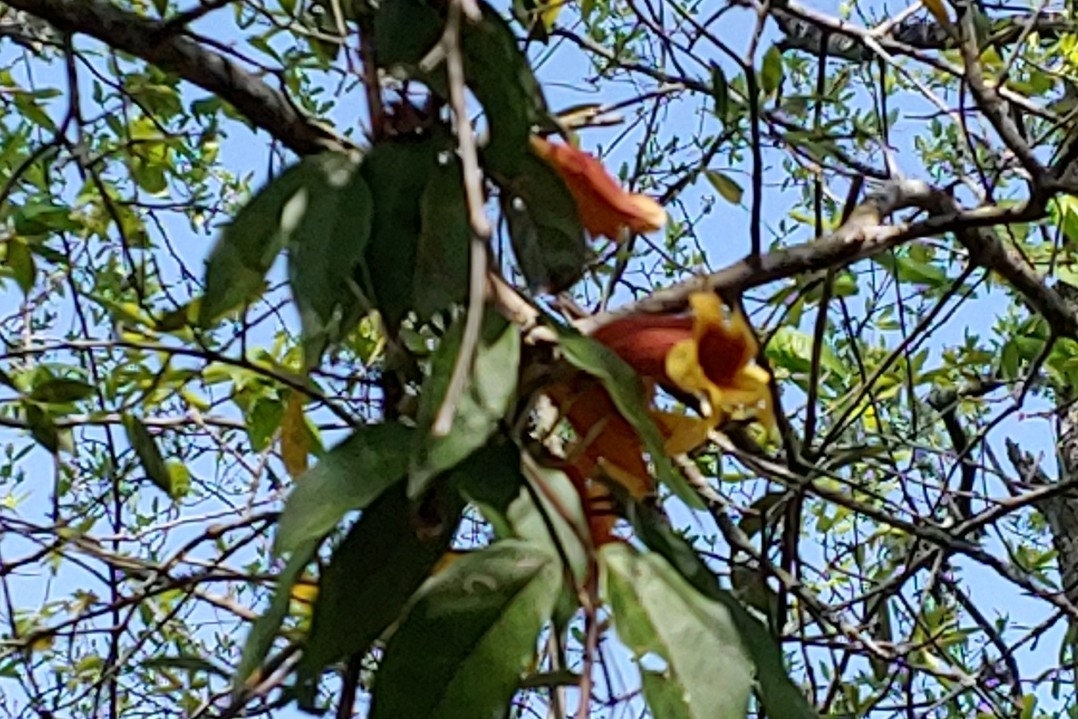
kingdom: Plantae
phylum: Tracheophyta
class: Magnoliopsida
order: Lamiales
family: Bignoniaceae
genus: Bignonia
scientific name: Bignonia capreolata
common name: Crossvine
